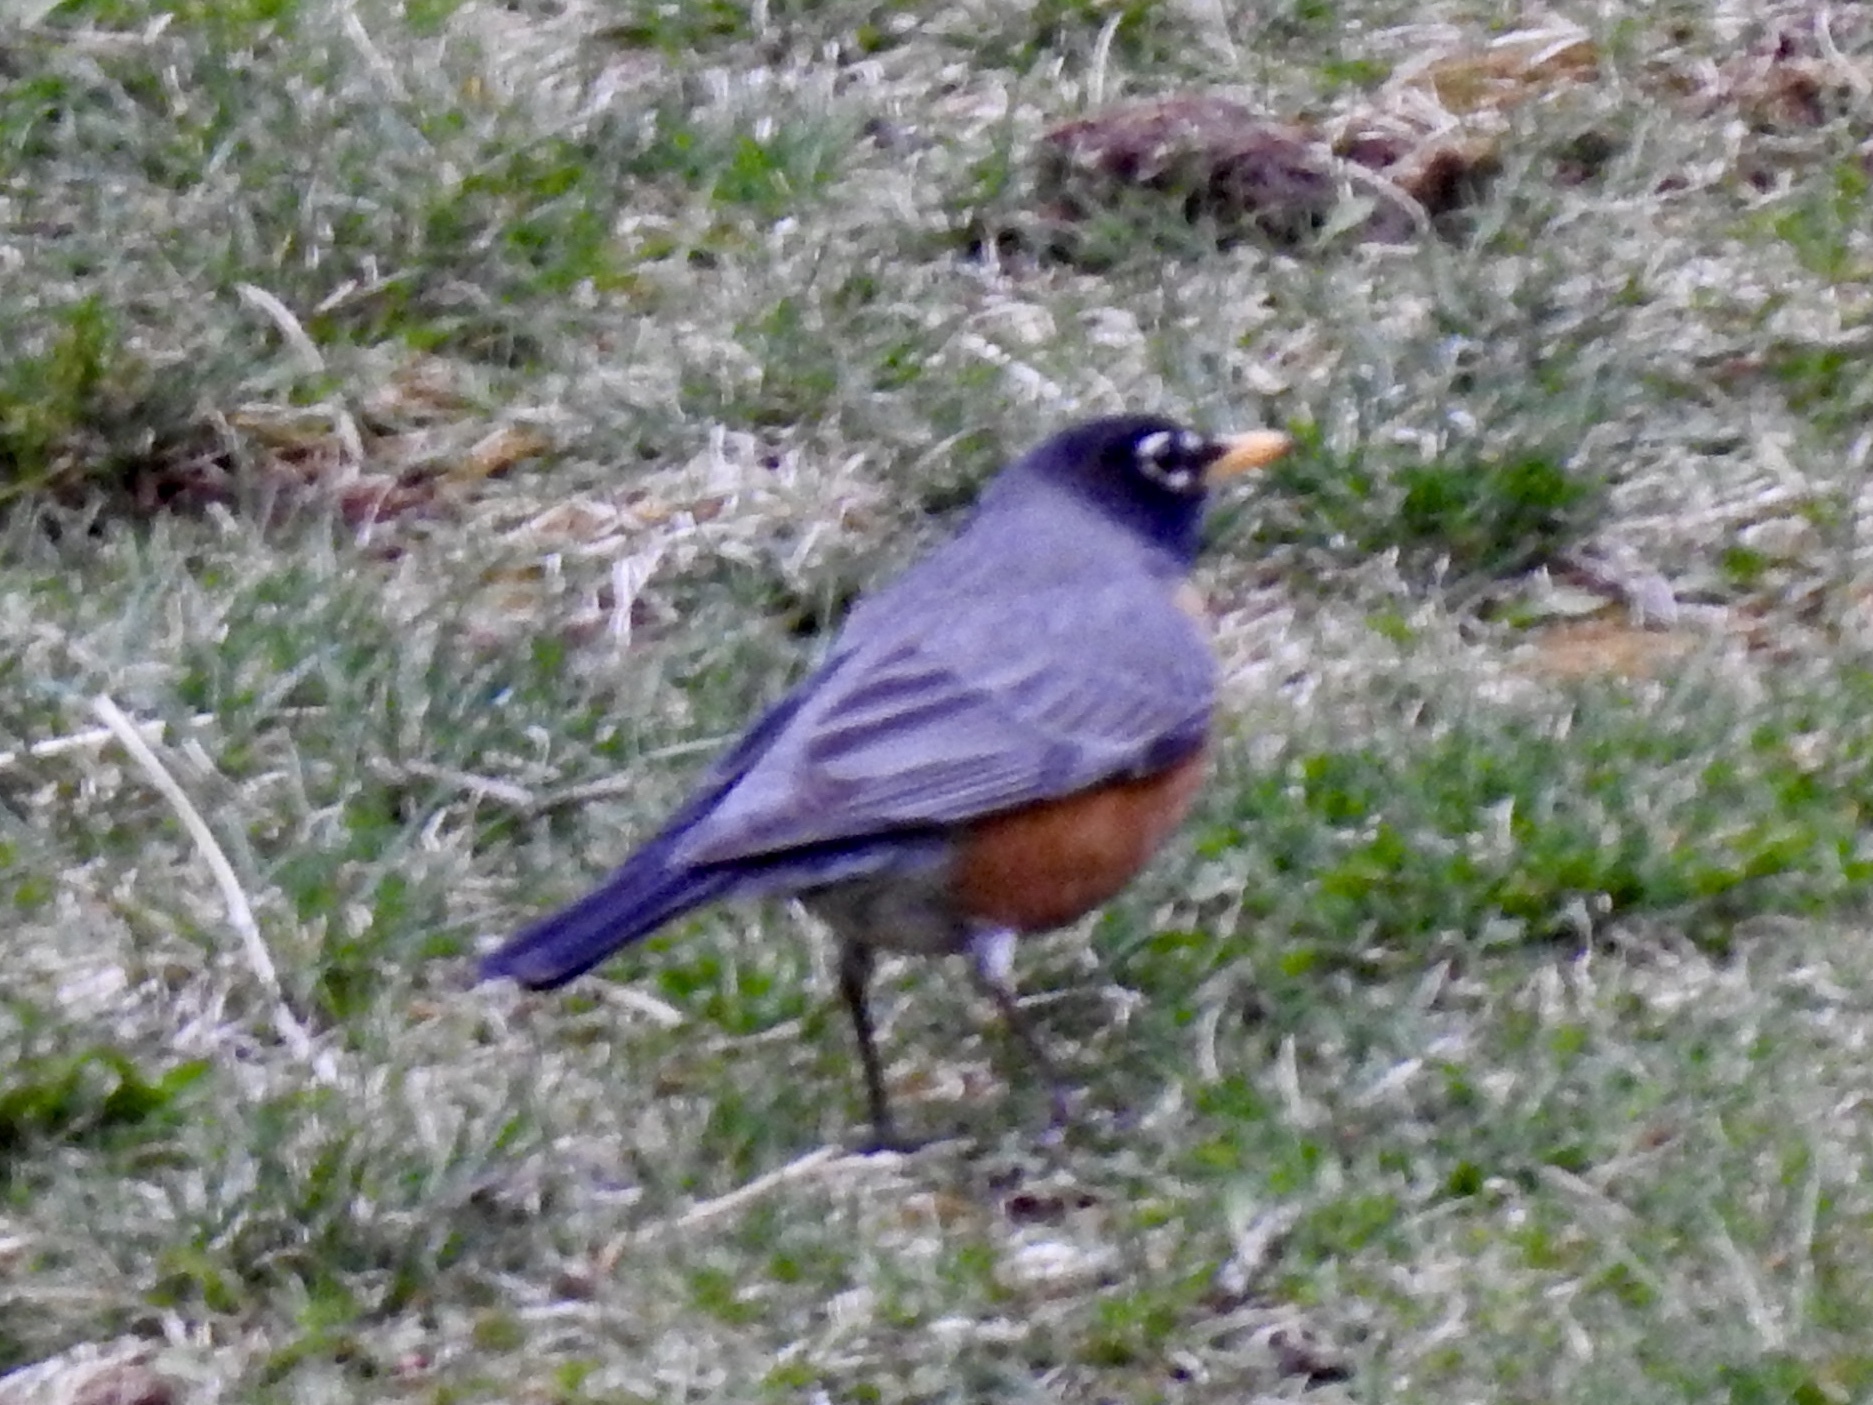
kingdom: Animalia
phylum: Chordata
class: Aves
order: Passeriformes
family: Turdidae
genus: Turdus
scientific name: Turdus migratorius
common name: American robin
